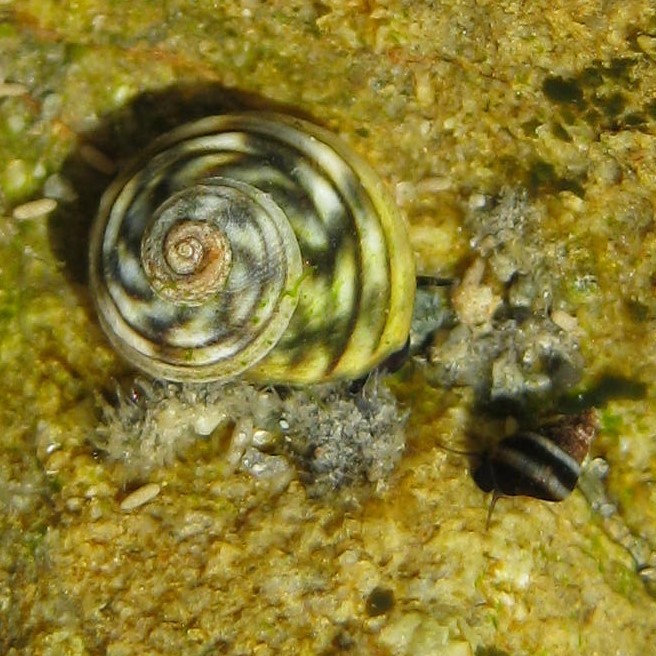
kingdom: Animalia
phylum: Mollusca
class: Gastropoda
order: Littorinimorpha
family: Littorinidae
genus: Risellopsis
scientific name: Risellopsis varia
